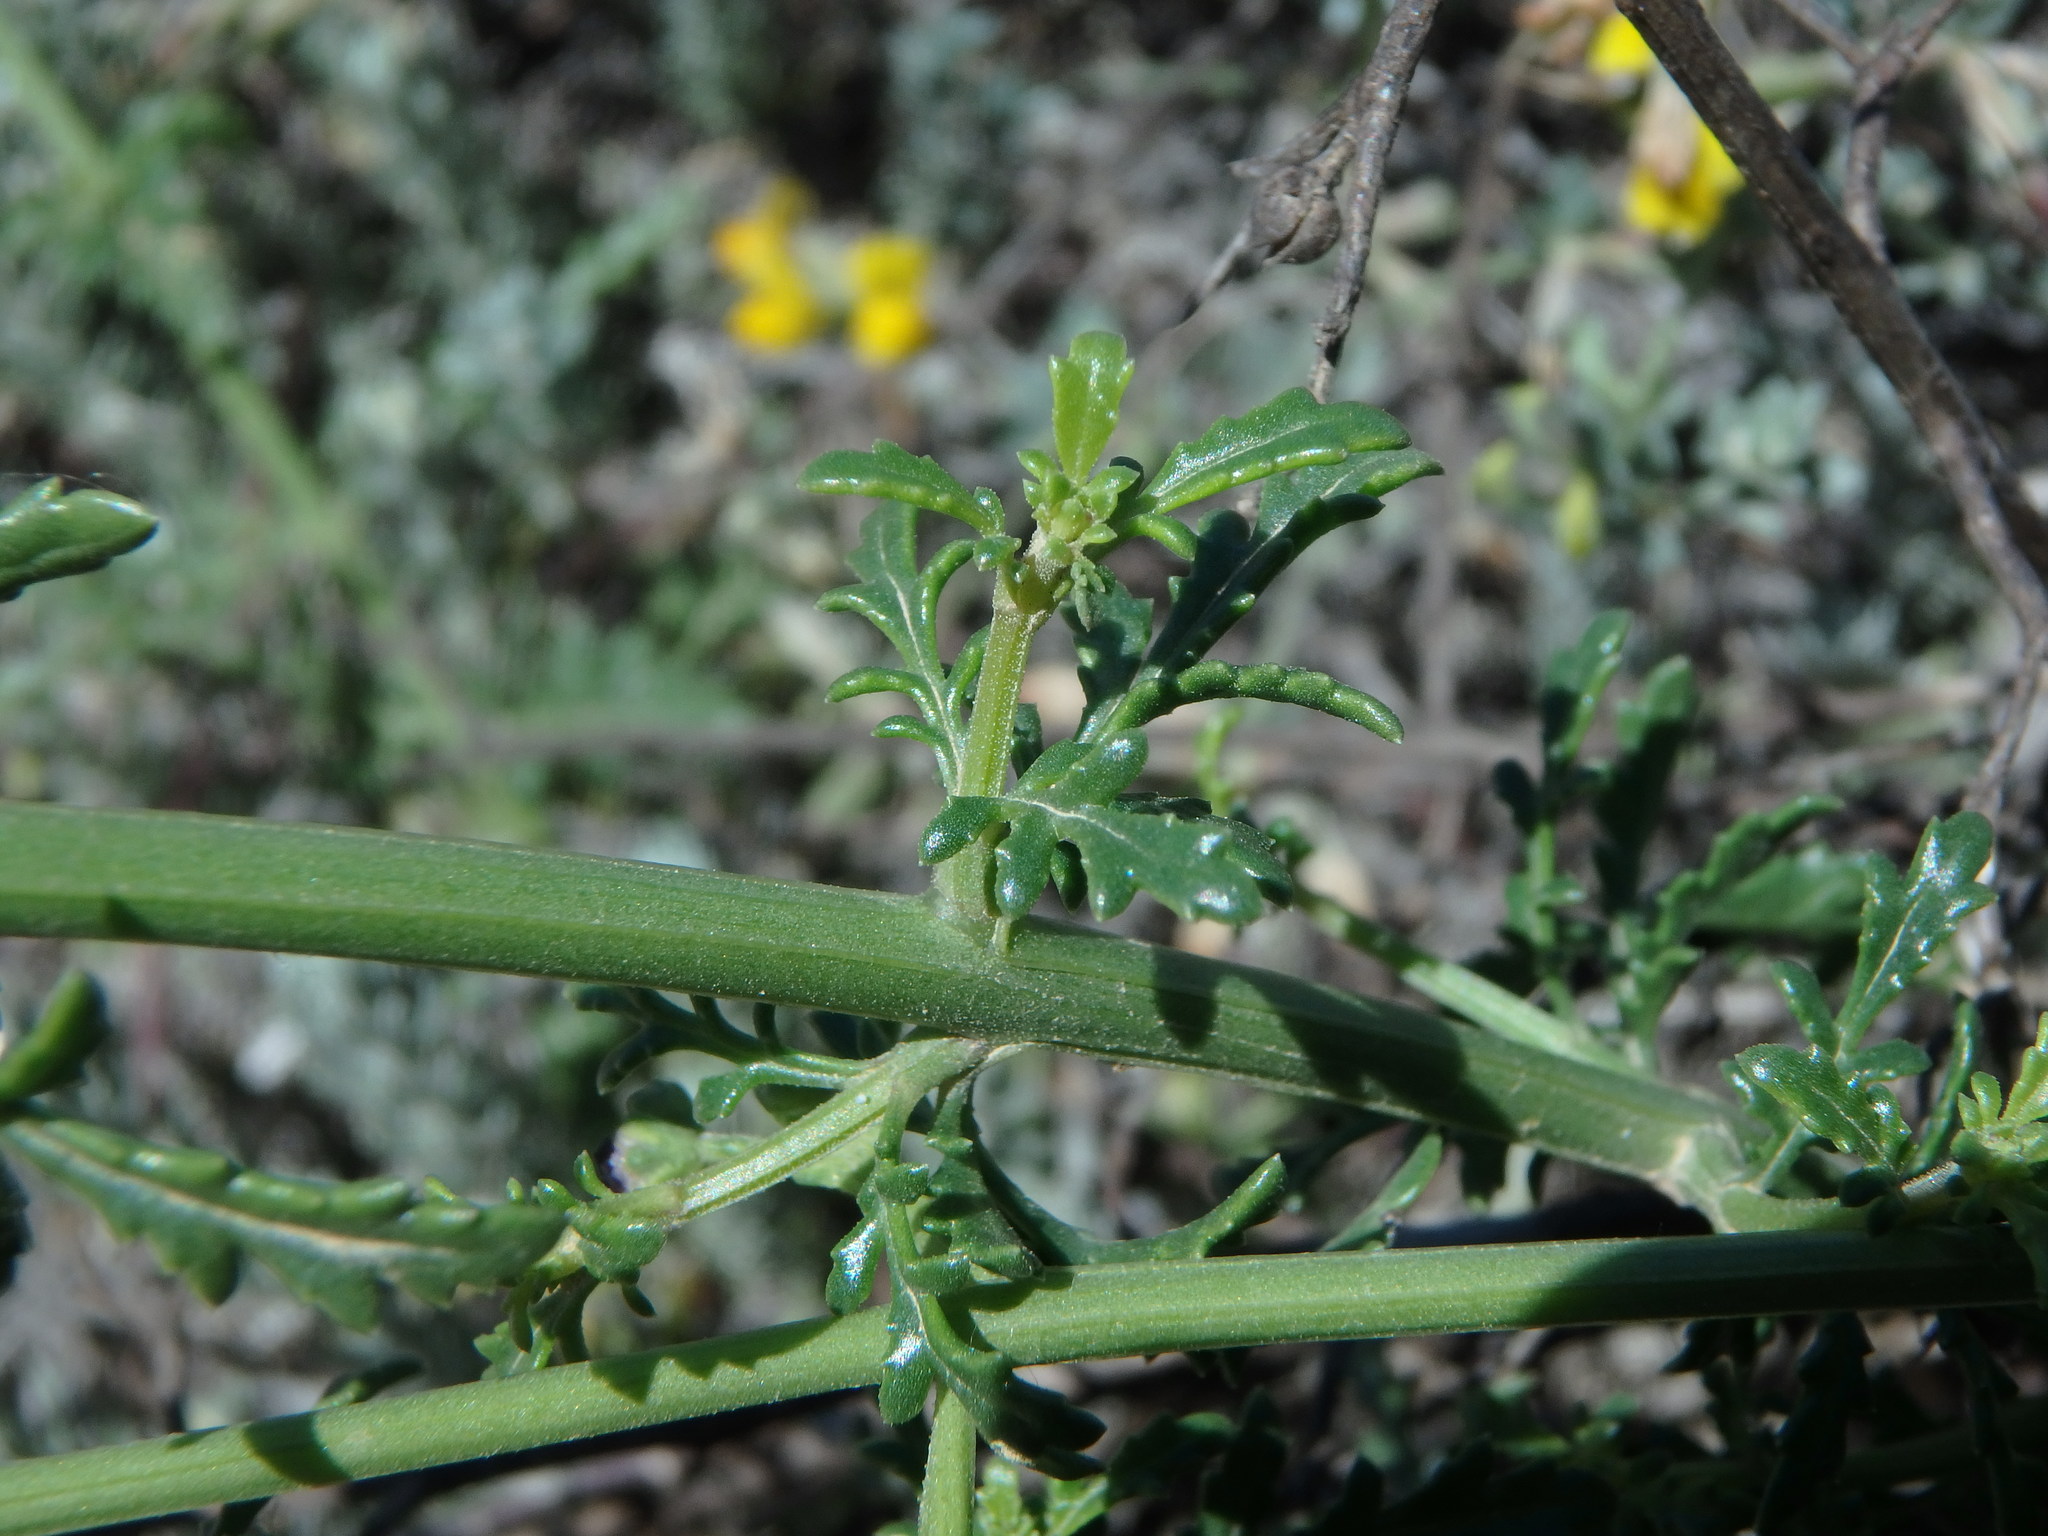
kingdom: Plantae
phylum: Tracheophyta
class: Magnoliopsida
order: Lamiales
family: Scrophulariaceae
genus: Scrophularia
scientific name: Scrophularia canina
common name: French figwort
